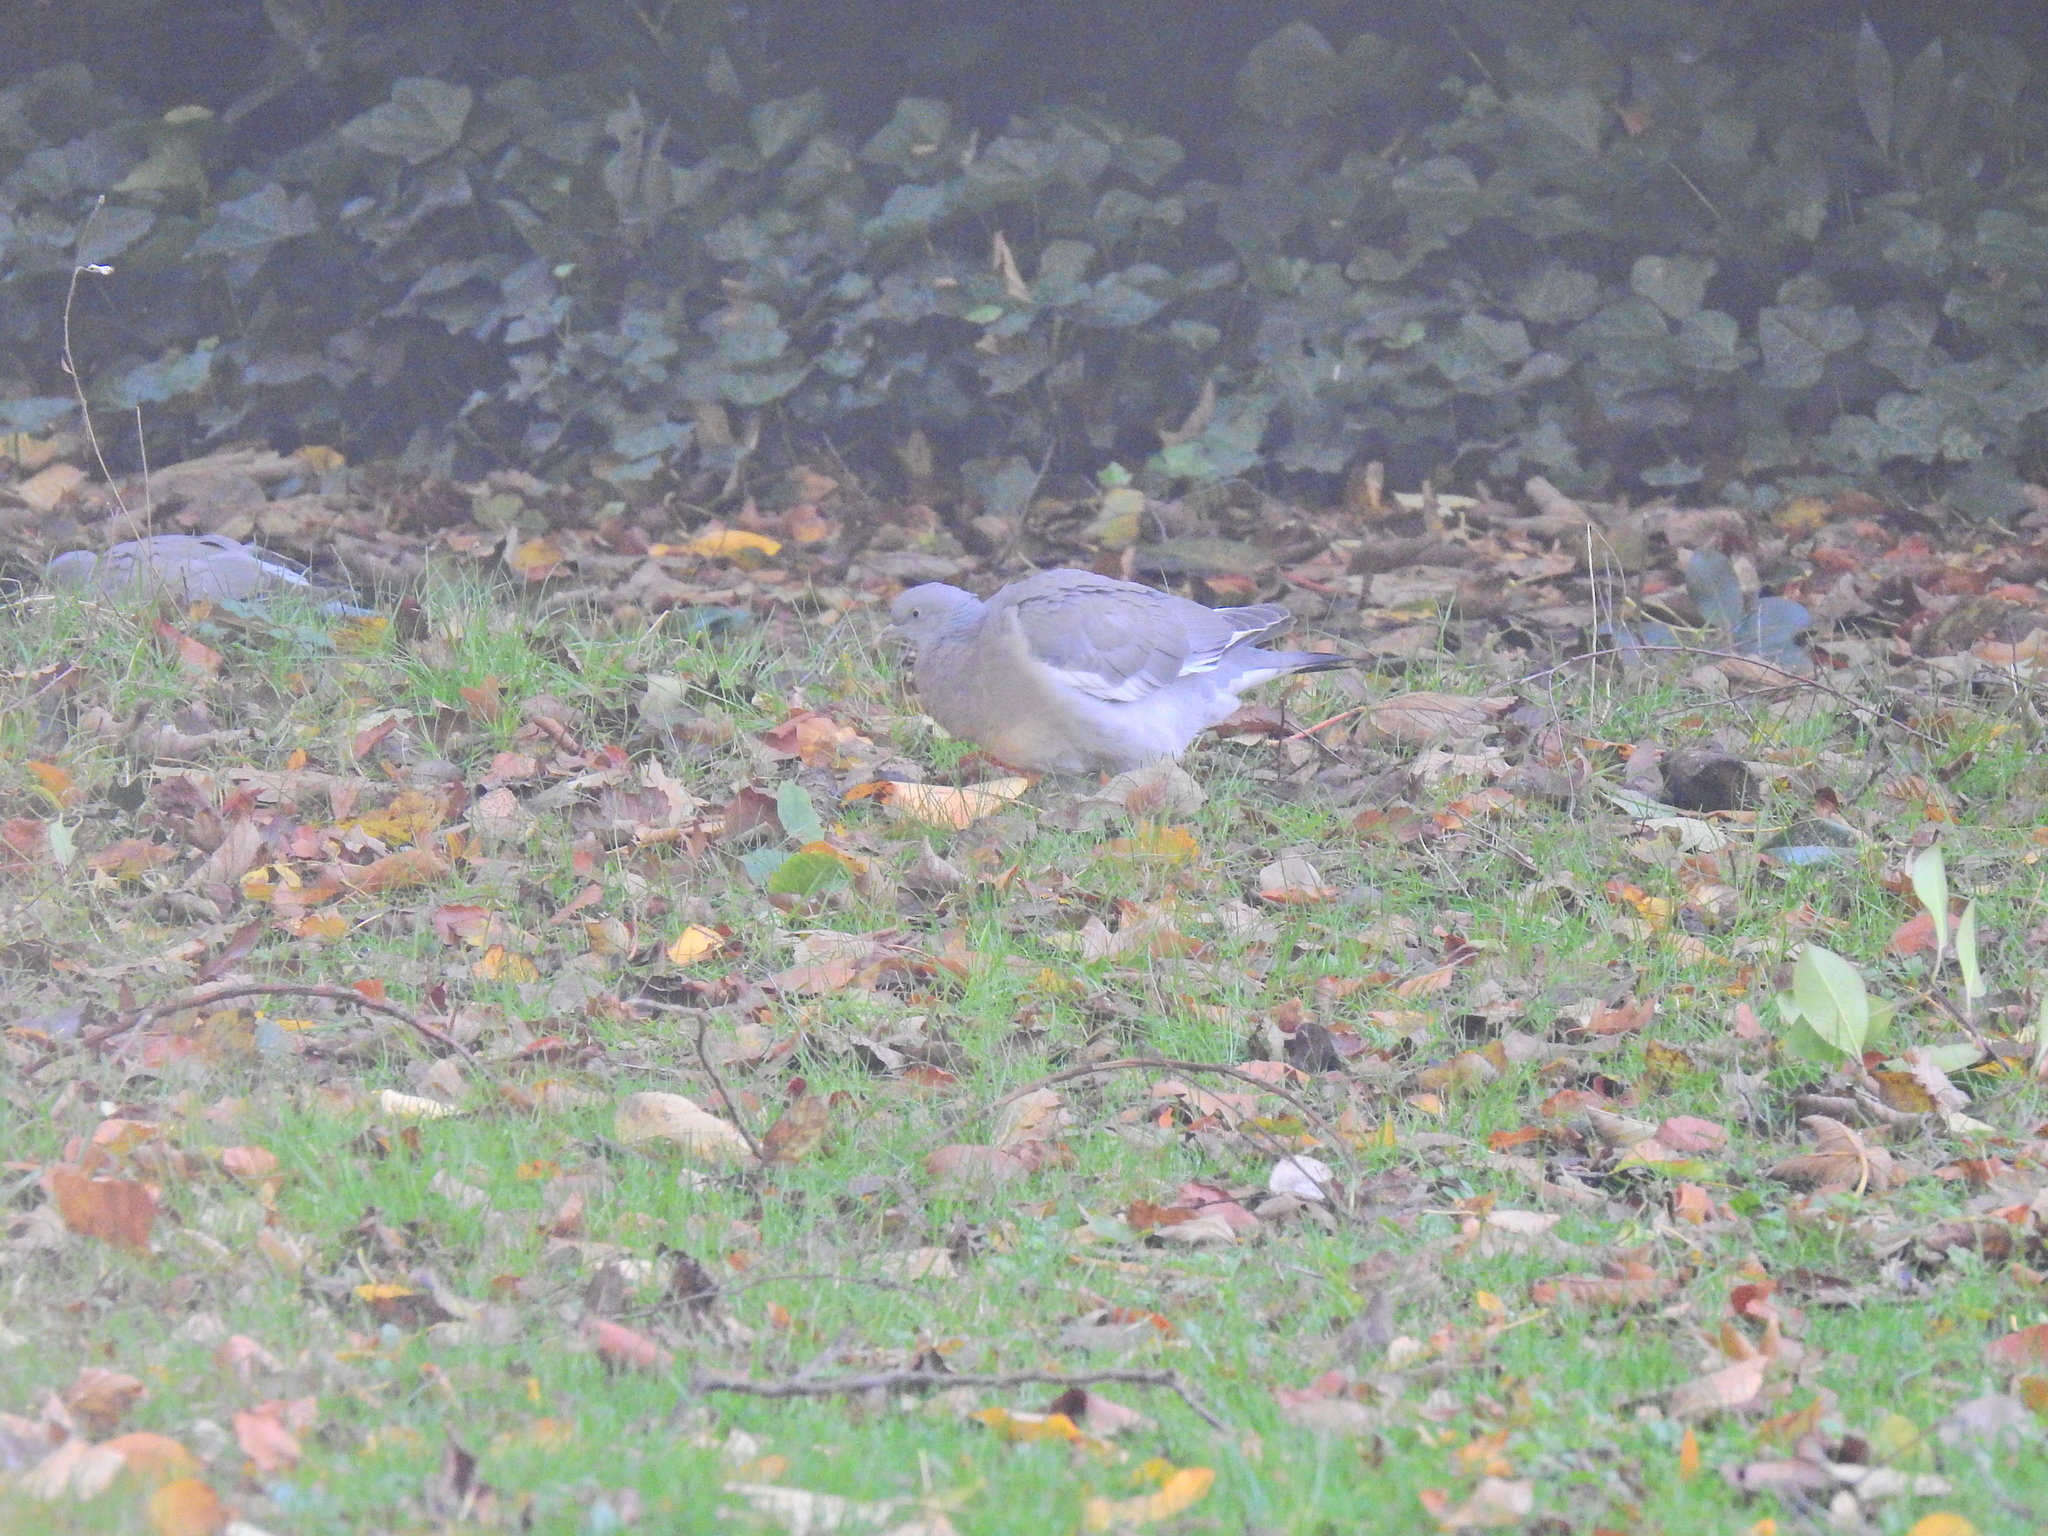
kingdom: Animalia
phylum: Chordata
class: Aves
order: Columbiformes
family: Columbidae
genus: Columba
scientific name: Columba palumbus
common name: Common wood pigeon
